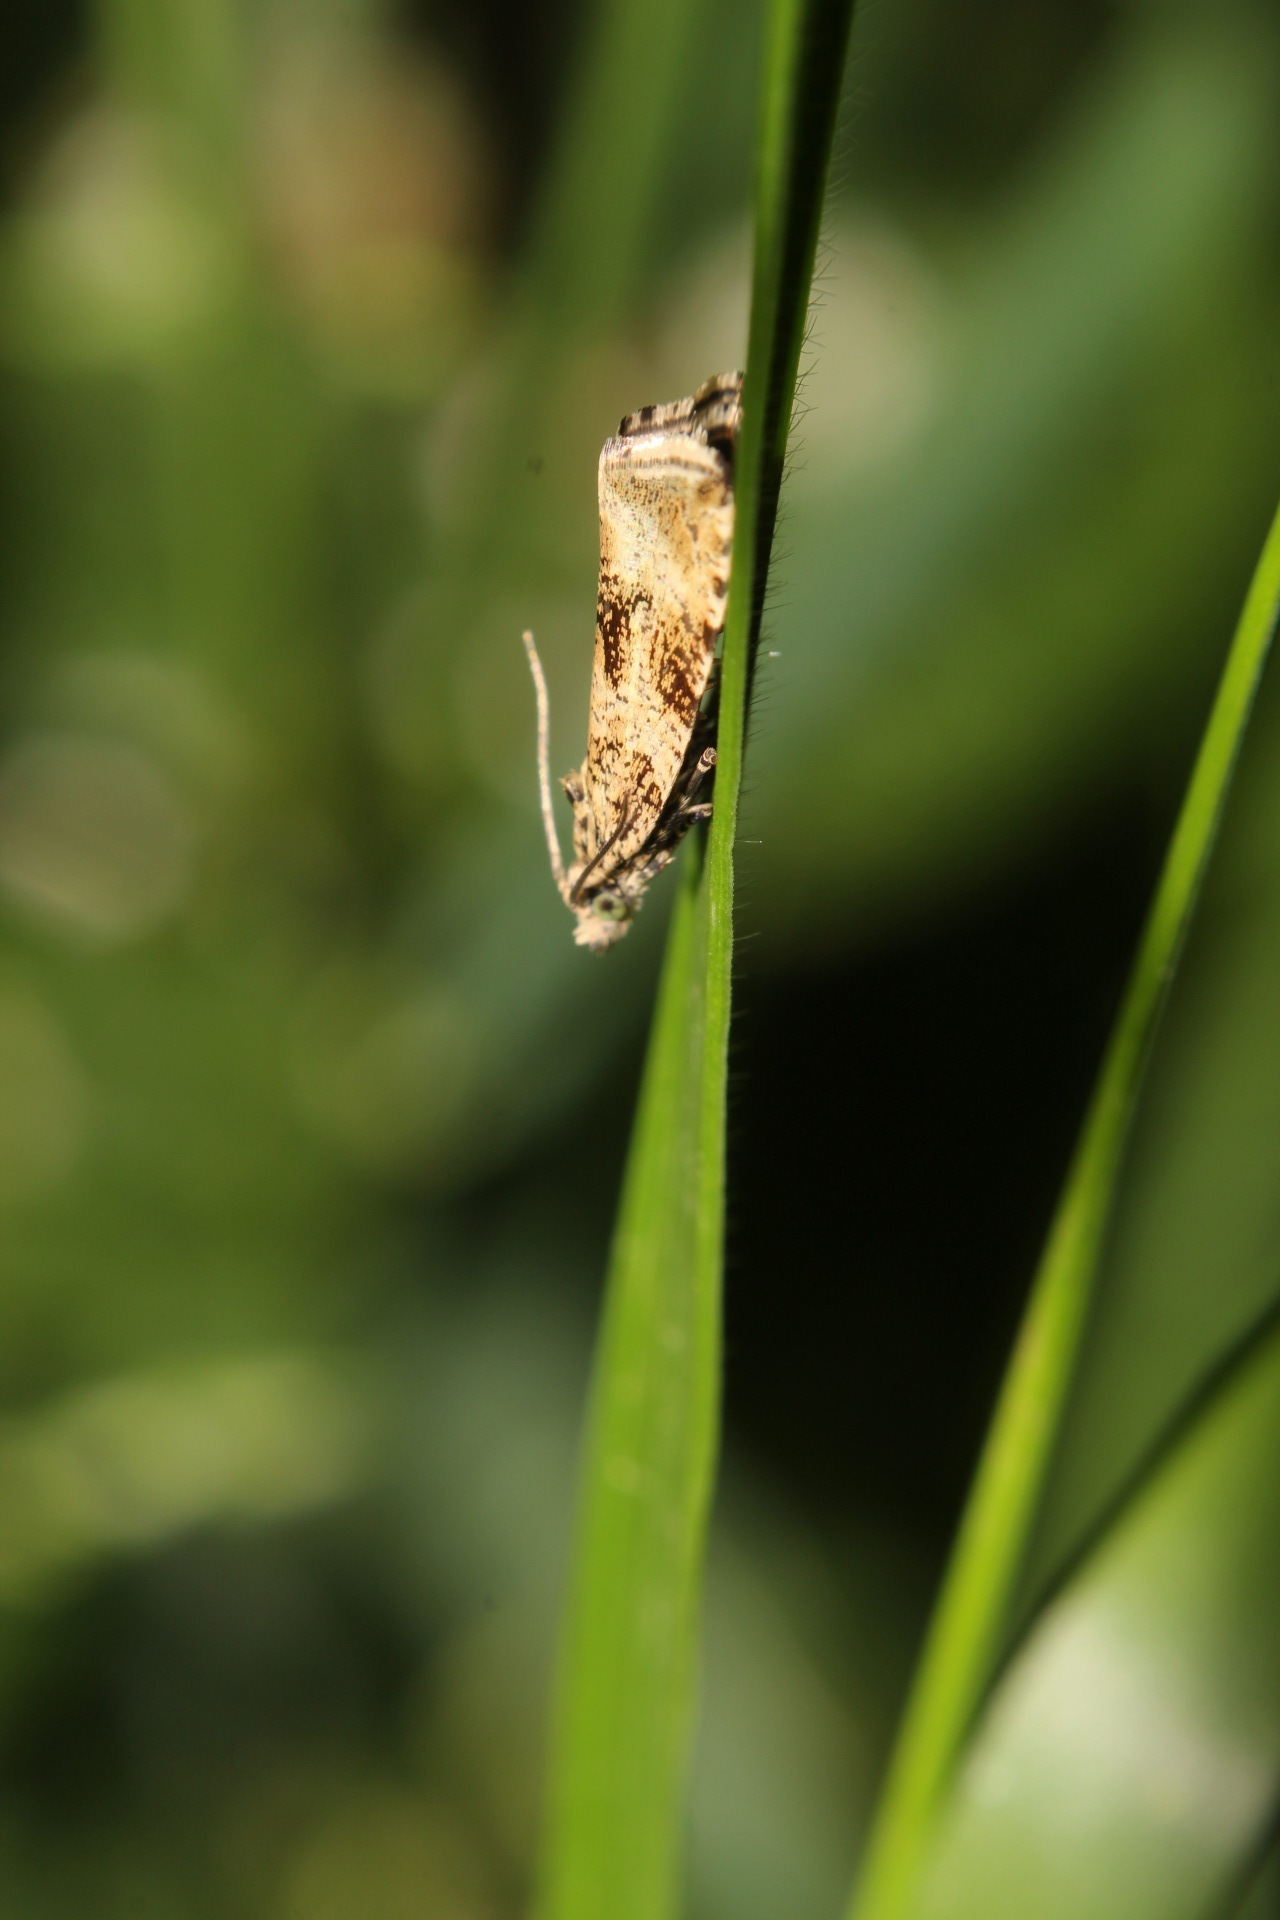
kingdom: Animalia
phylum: Arthropoda
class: Insecta
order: Lepidoptera
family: Tortricidae
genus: Syricoris
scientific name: Syricoris lacunana
